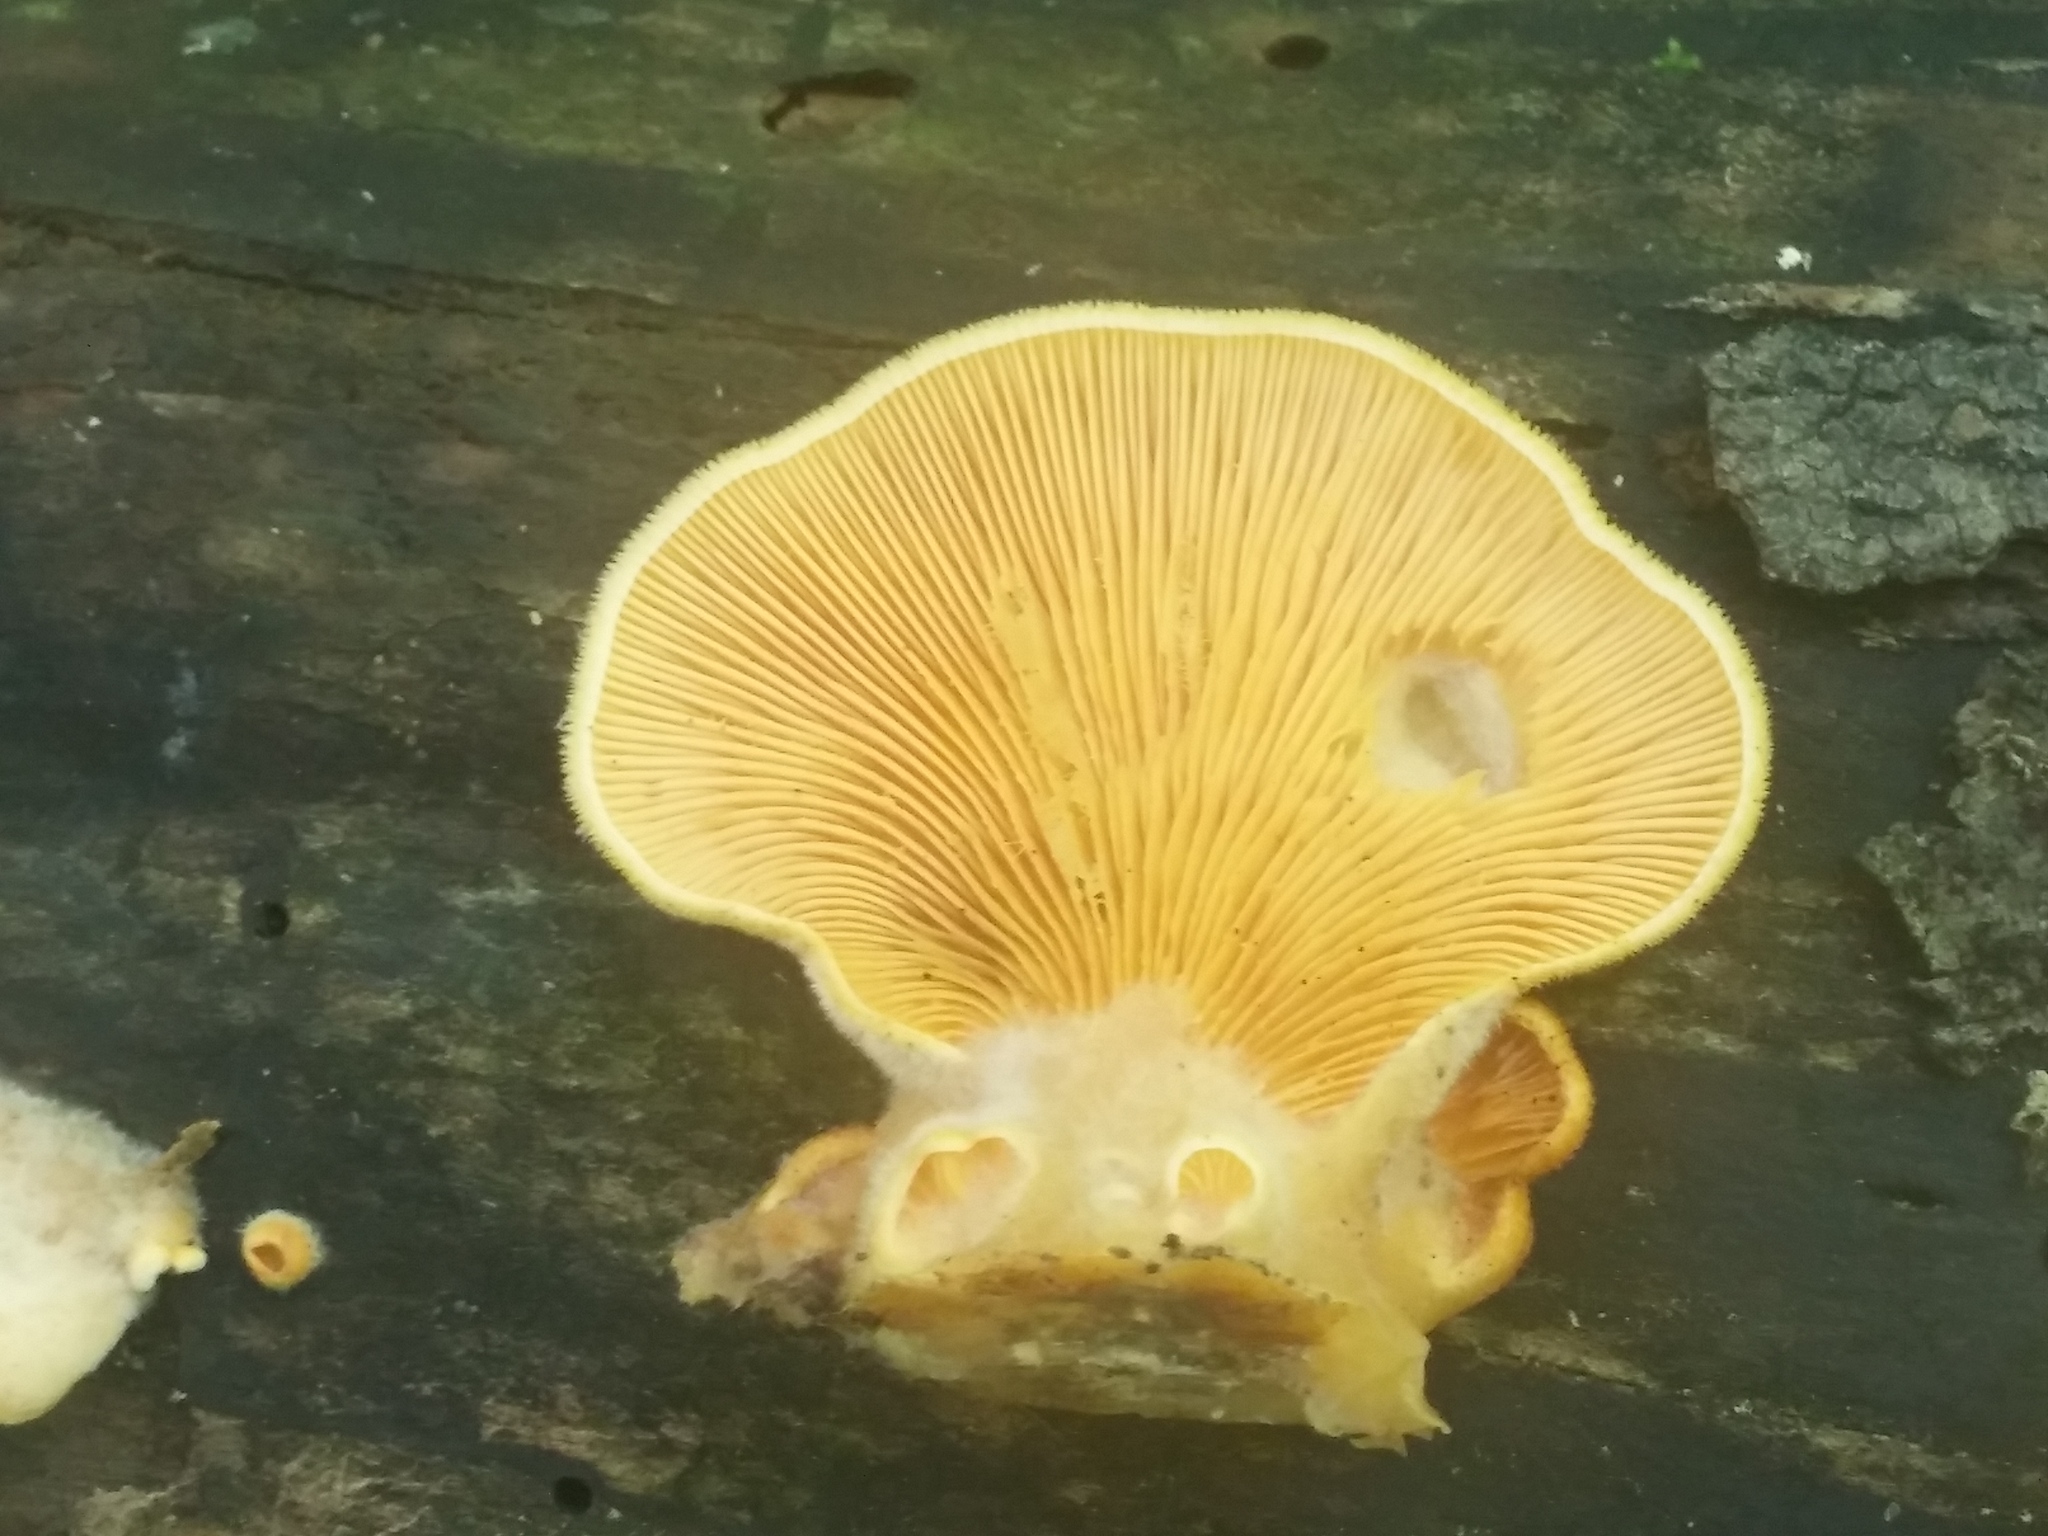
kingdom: Fungi
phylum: Basidiomycota
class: Agaricomycetes
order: Agaricales
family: Phyllotopsidaceae
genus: Phyllotopsis
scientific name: Phyllotopsis nidulans
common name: Orange mock oyster
